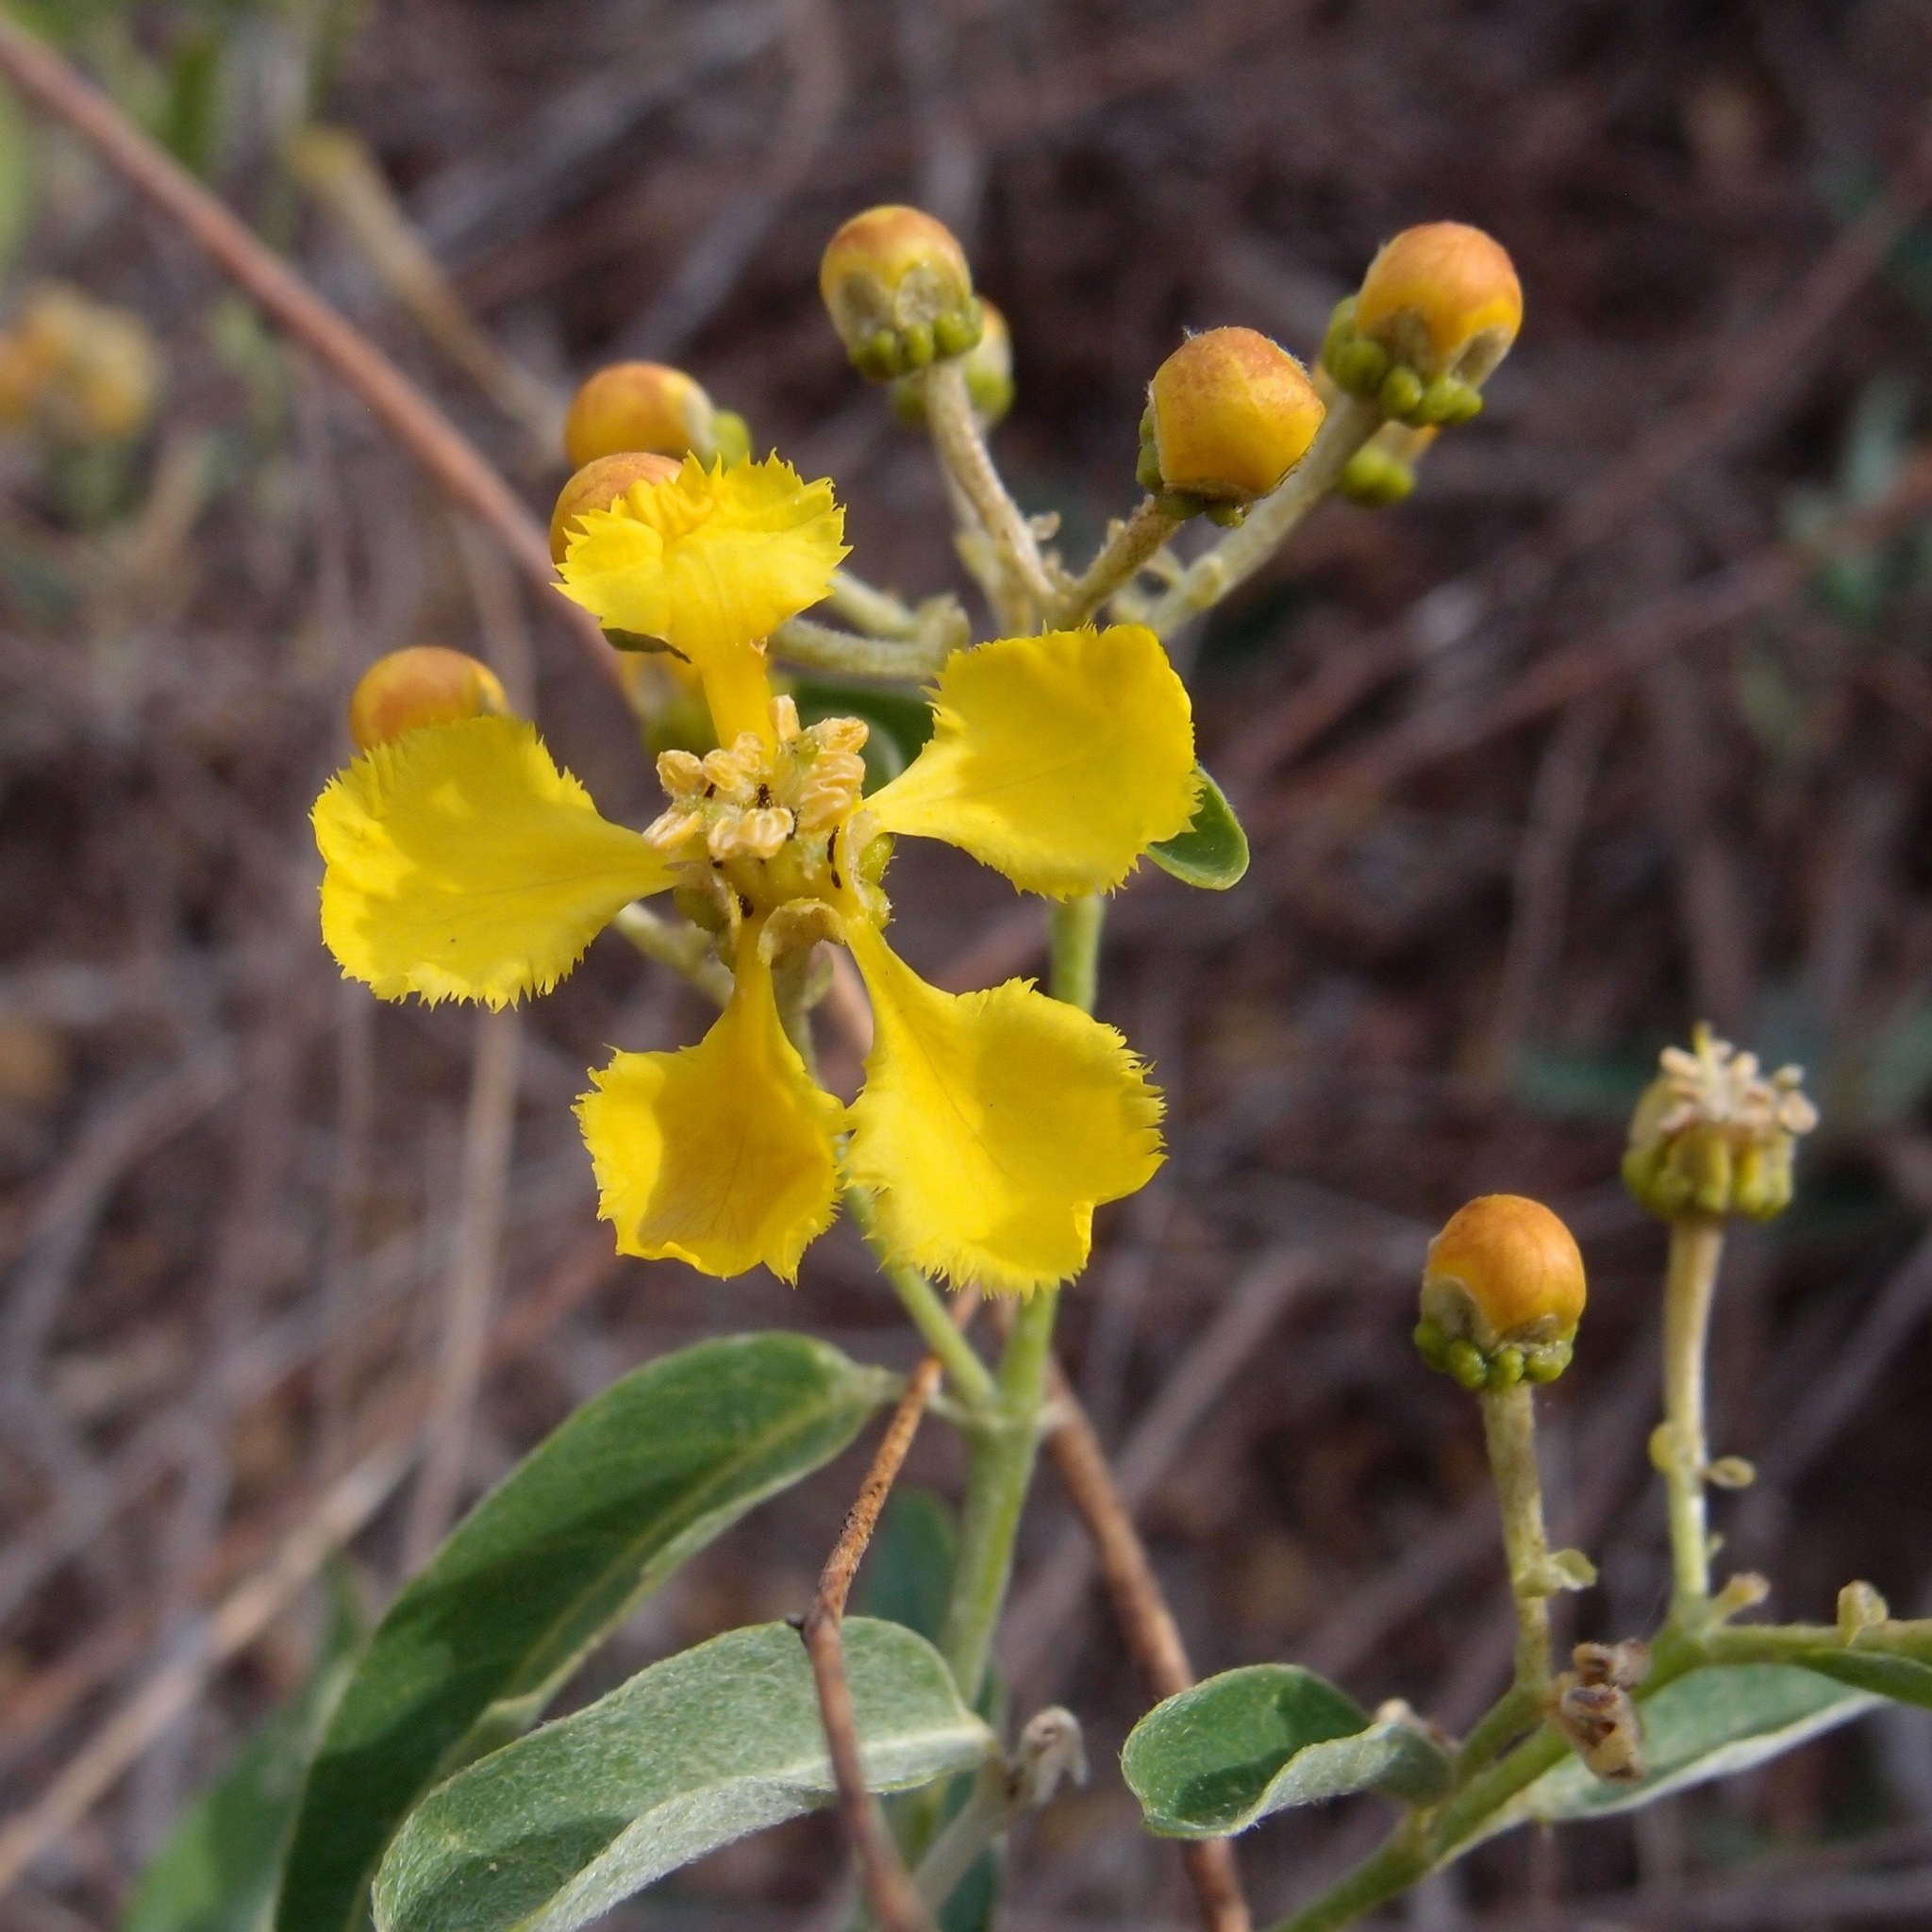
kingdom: Plantae
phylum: Tracheophyta
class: Magnoliopsida
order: Malpighiales
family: Malpighiaceae
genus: Callaeum
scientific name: Callaeum macropterum
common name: Mexican butterfly-vine
